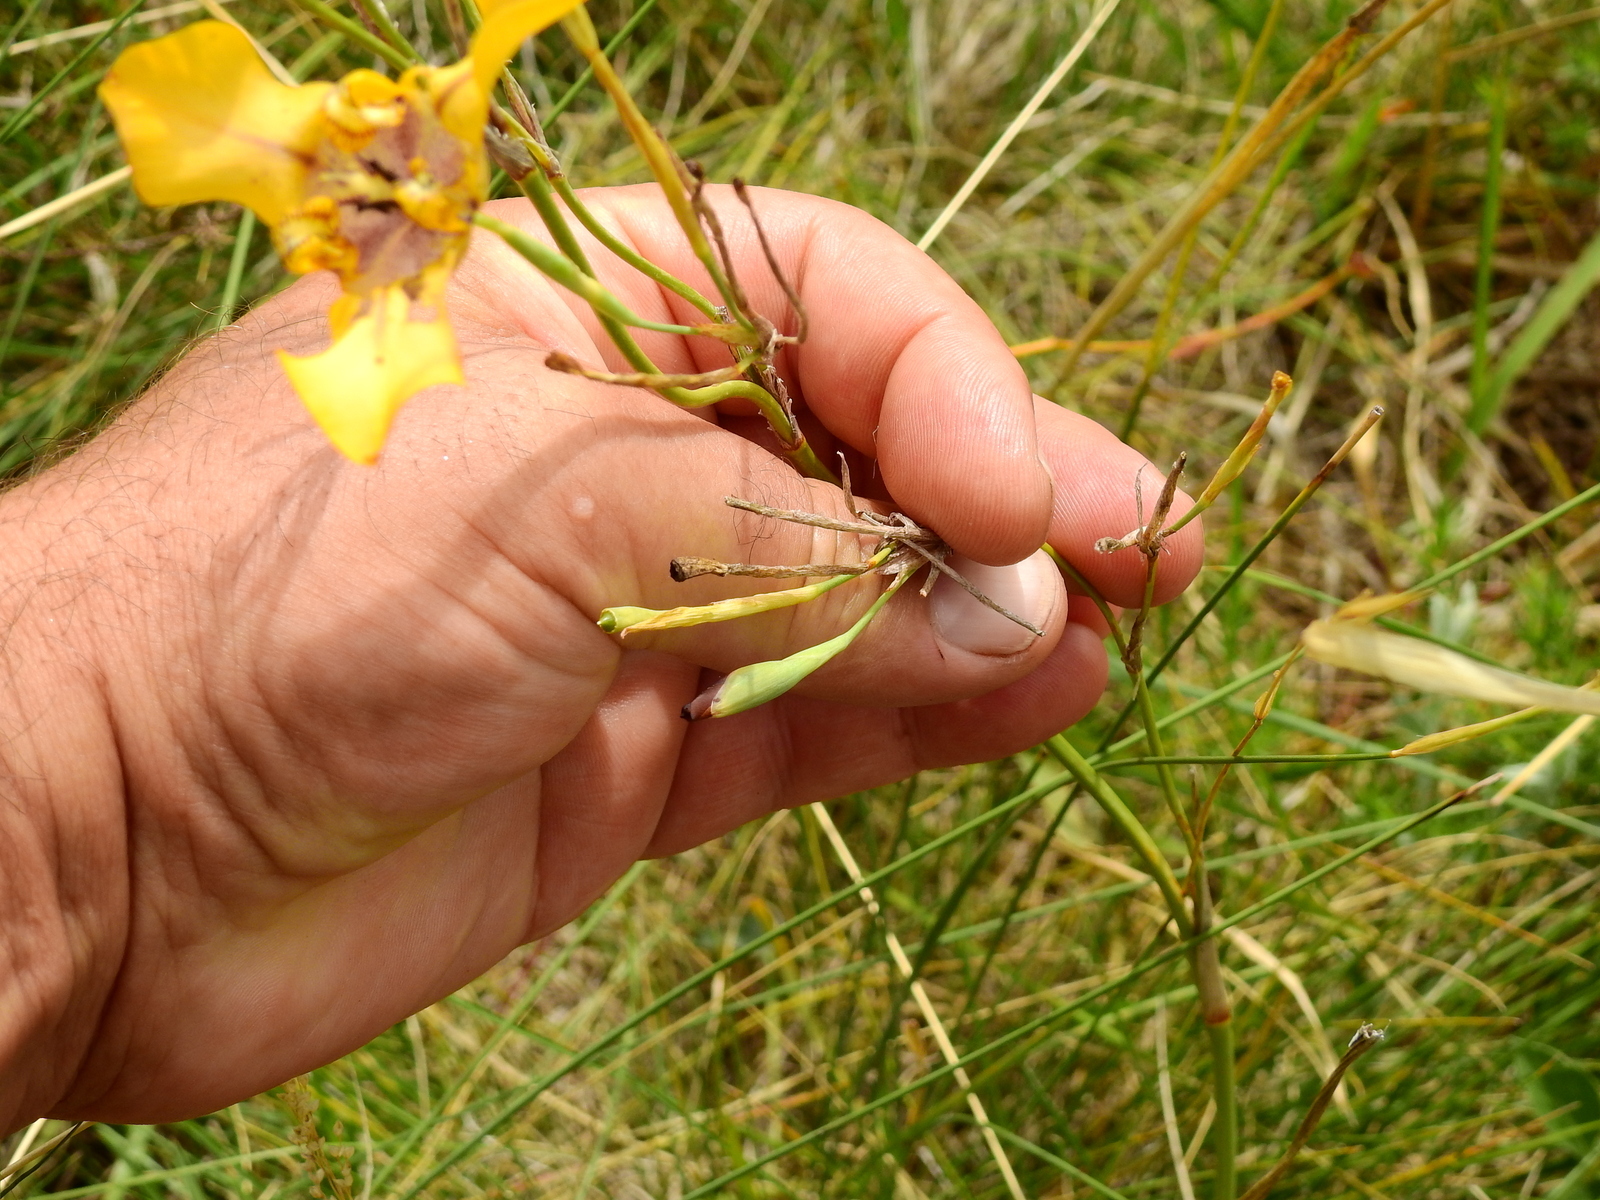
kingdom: Plantae
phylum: Tracheophyta
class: Liliopsida
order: Asparagales
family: Iridaceae
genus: Cypella
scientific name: Cypella herbertii
